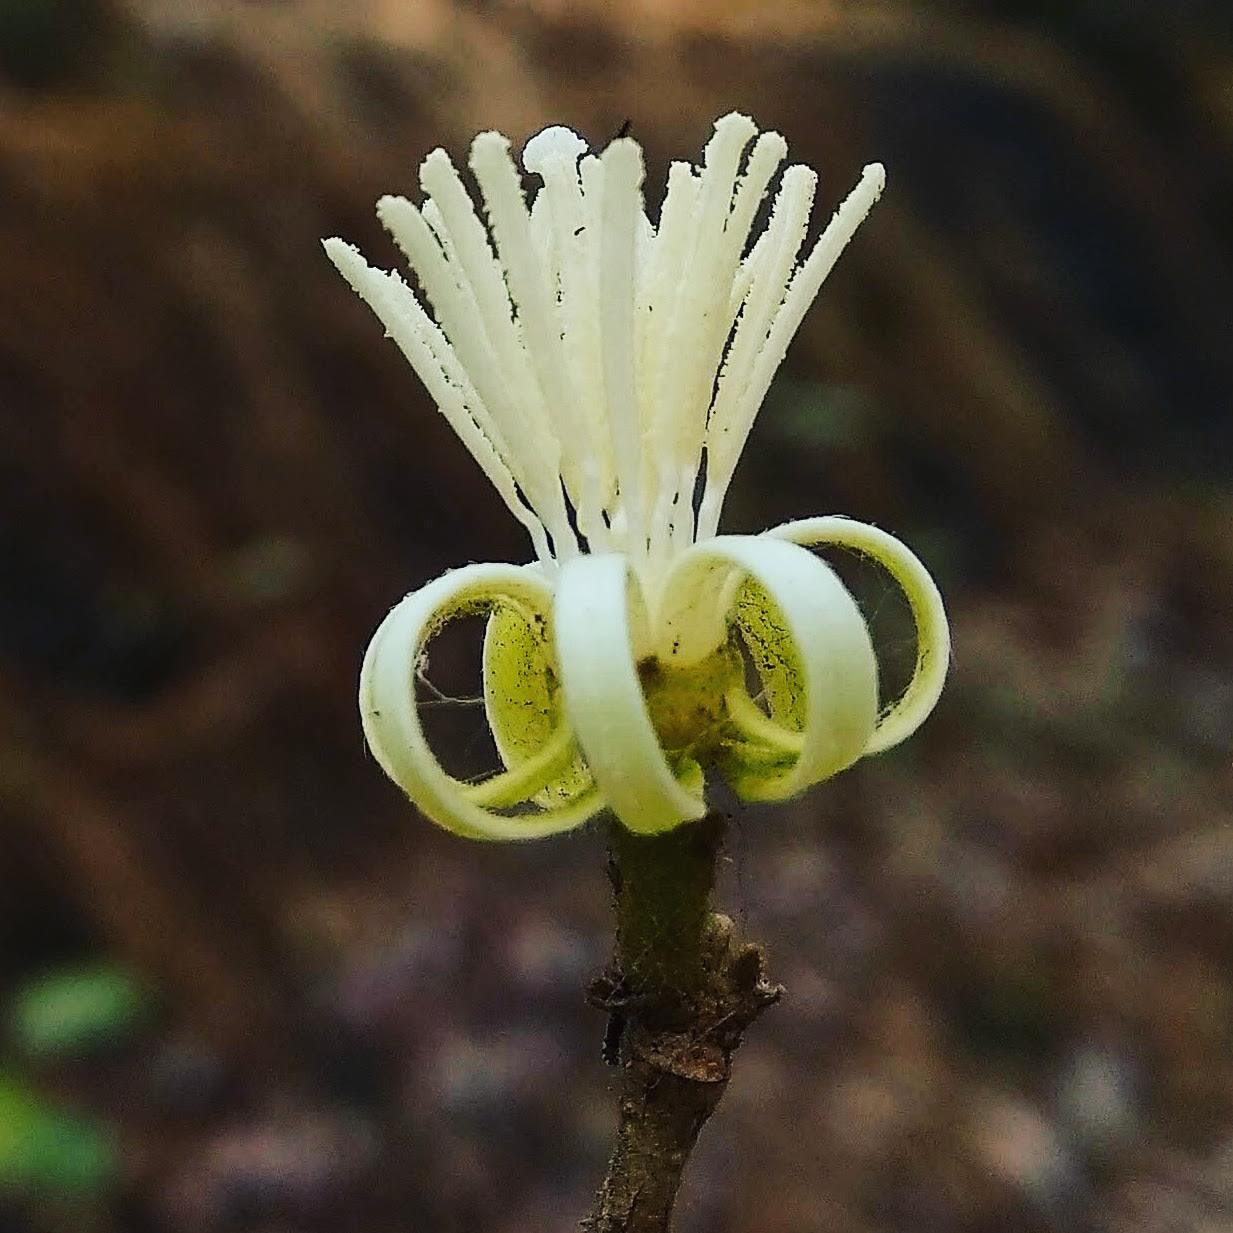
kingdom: Plantae
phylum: Tracheophyta
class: Magnoliopsida
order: Cornales
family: Cornaceae
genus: Alangium
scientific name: Alangium salviifolium
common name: Sage-leaf alangium
